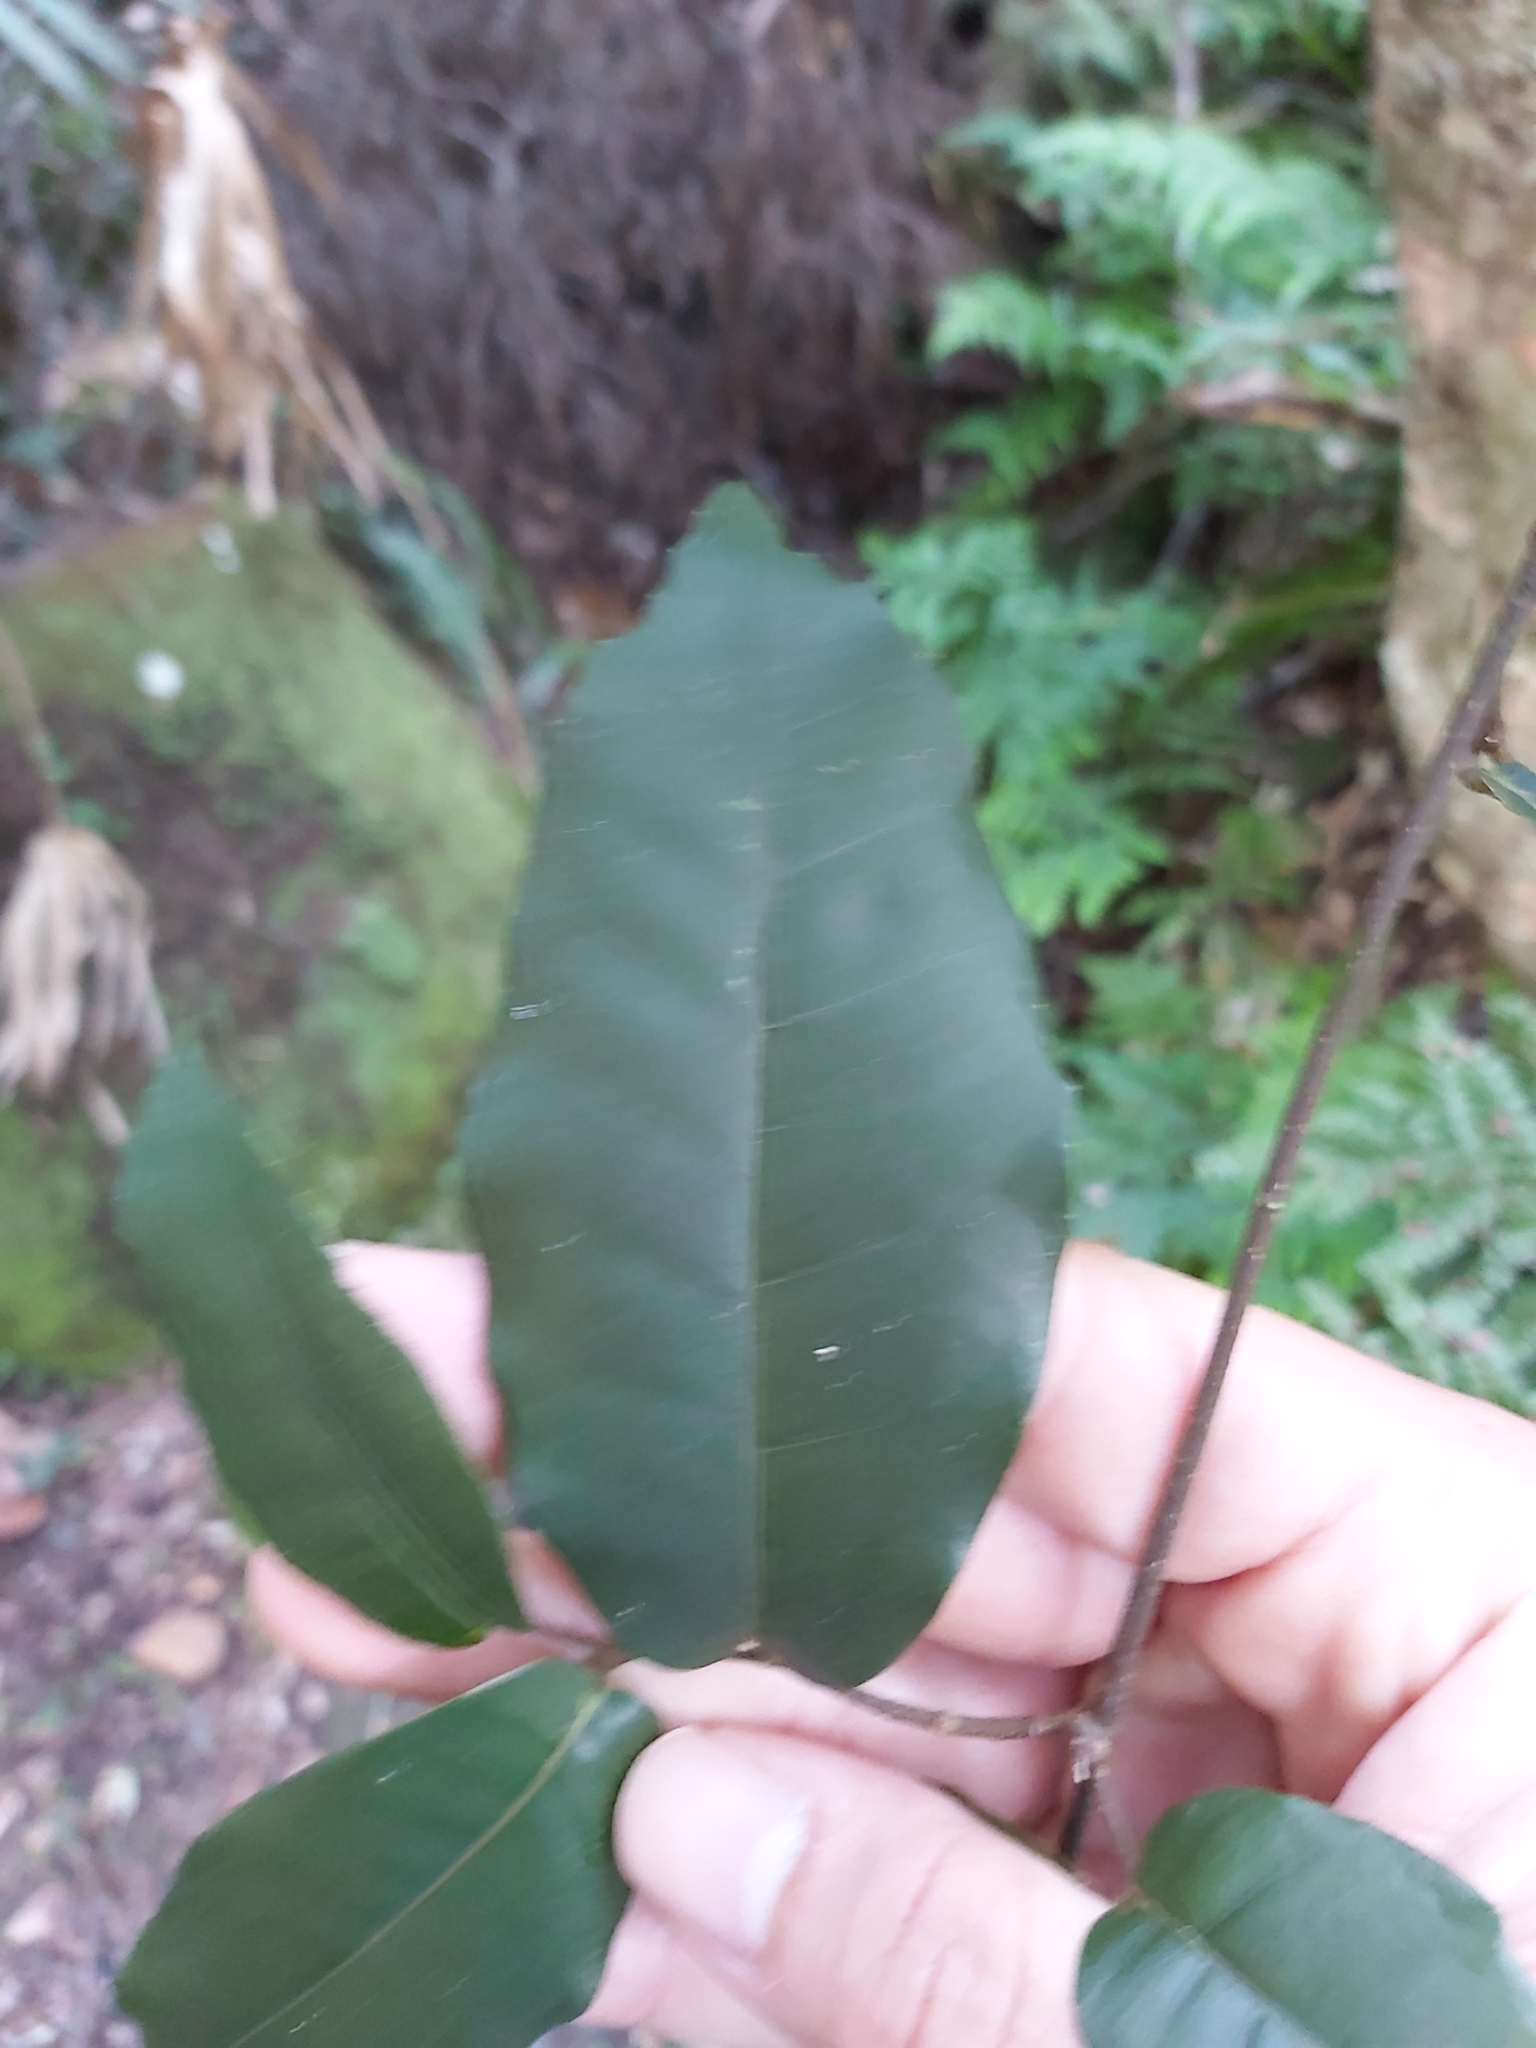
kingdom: Plantae
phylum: Tracheophyta
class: Magnoliopsida
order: Rosales
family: Moraceae
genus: Malaisia
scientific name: Malaisia scandens
